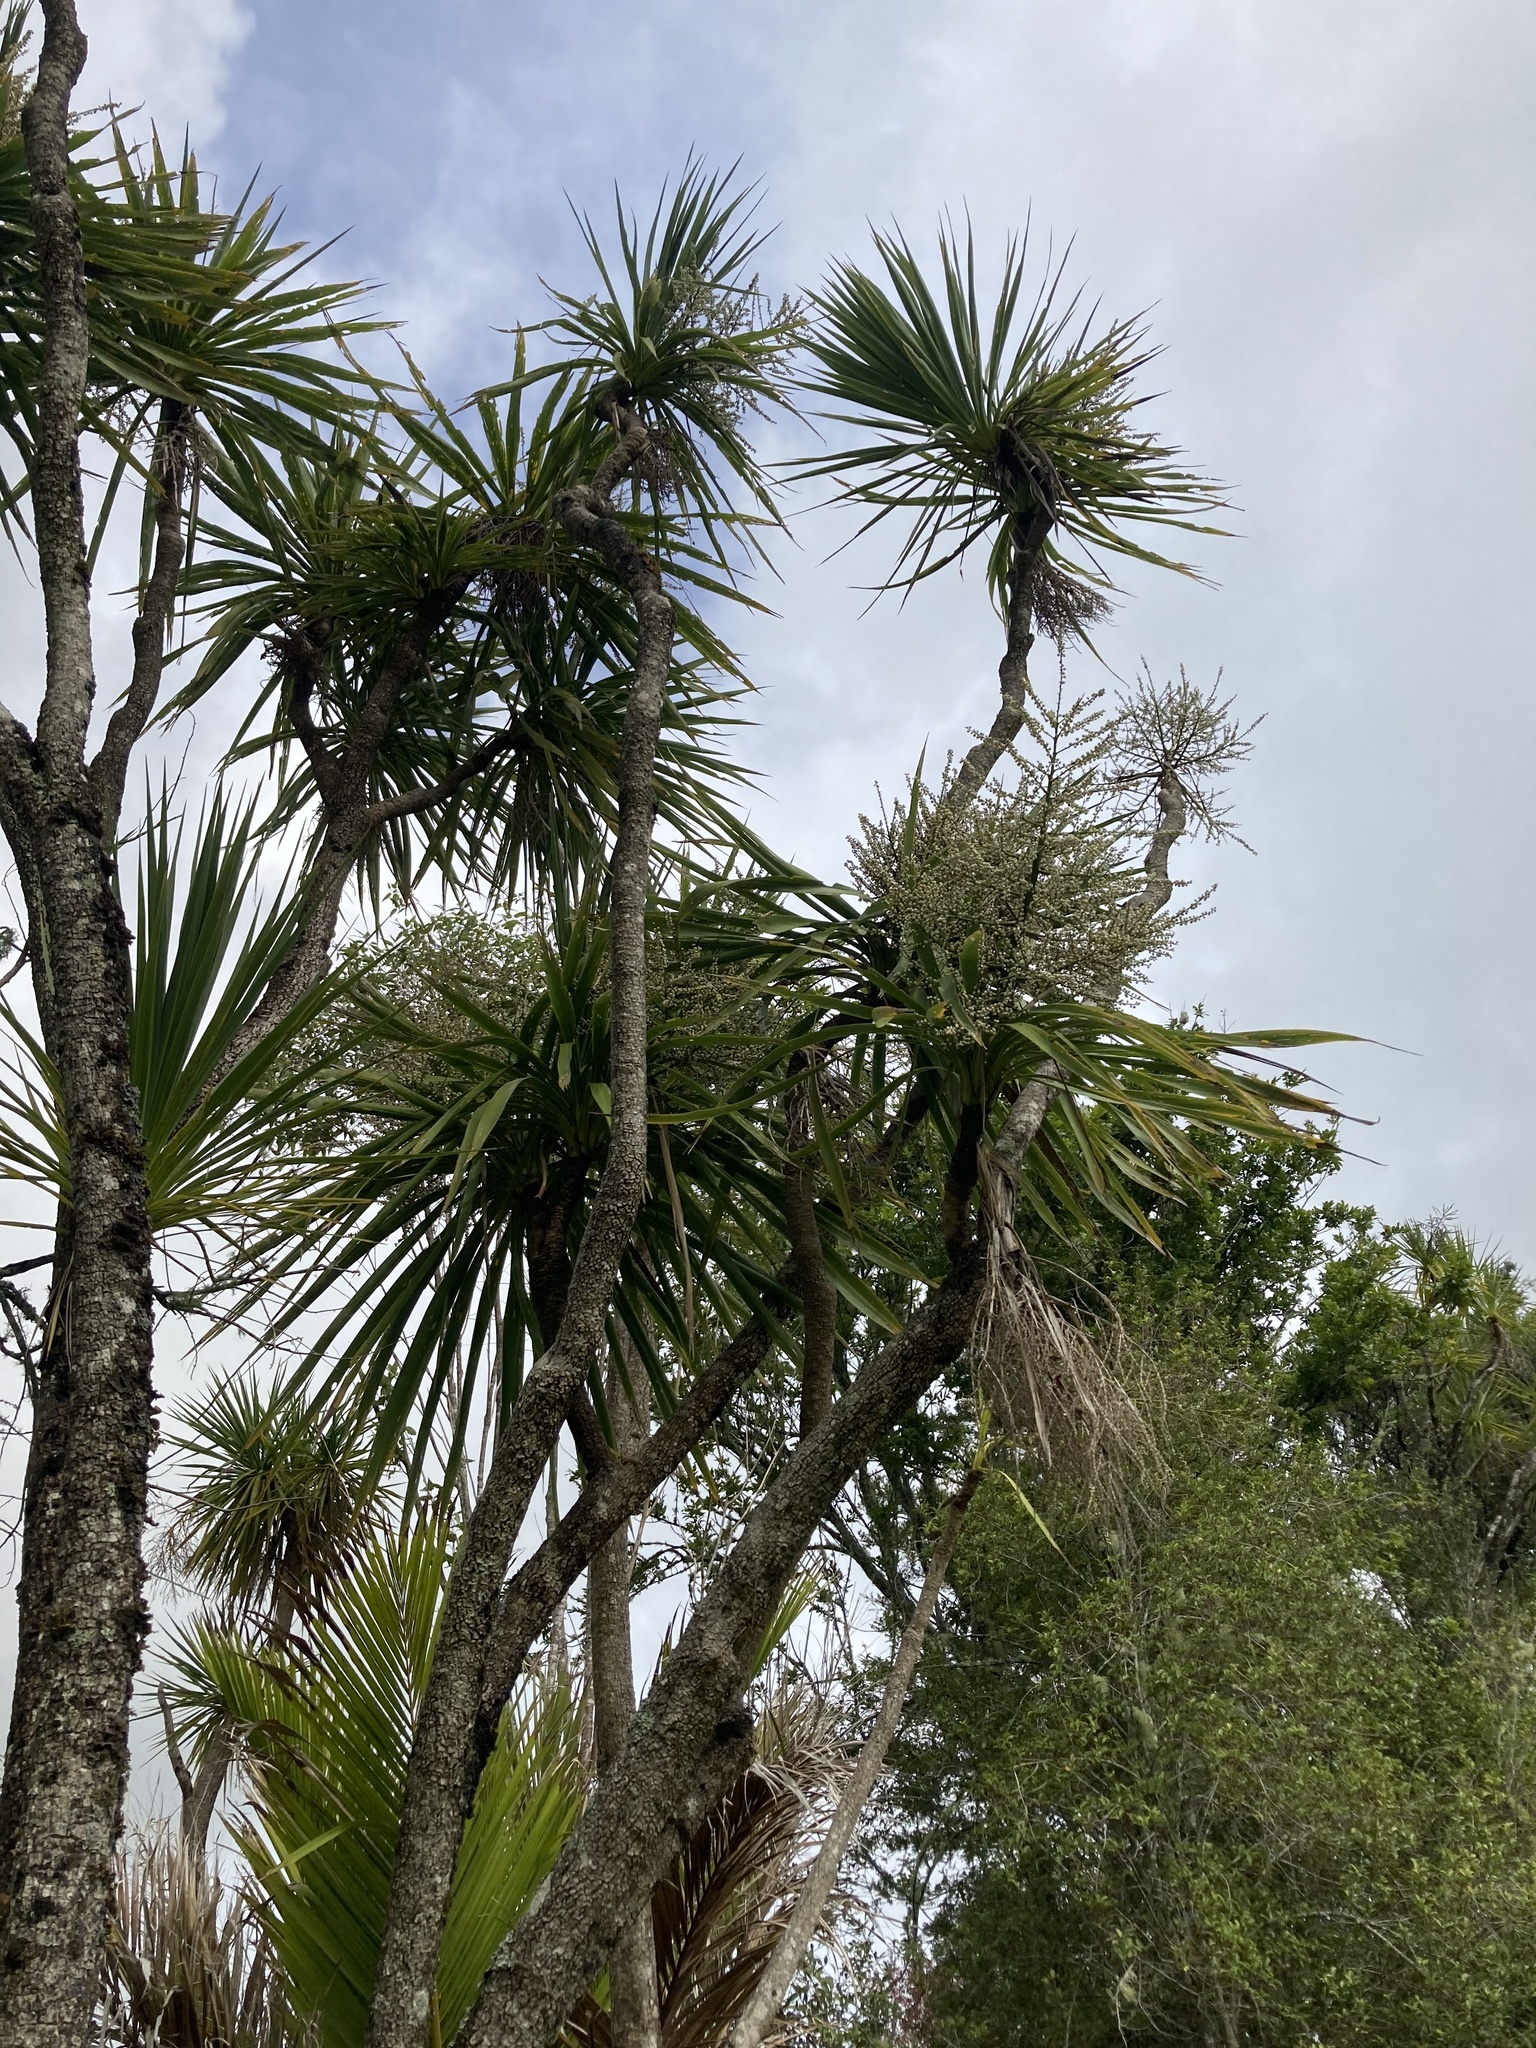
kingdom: Plantae
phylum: Tracheophyta
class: Liliopsida
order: Asparagales
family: Asparagaceae
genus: Cordyline
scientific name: Cordyline australis
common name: Cabbage-palm
